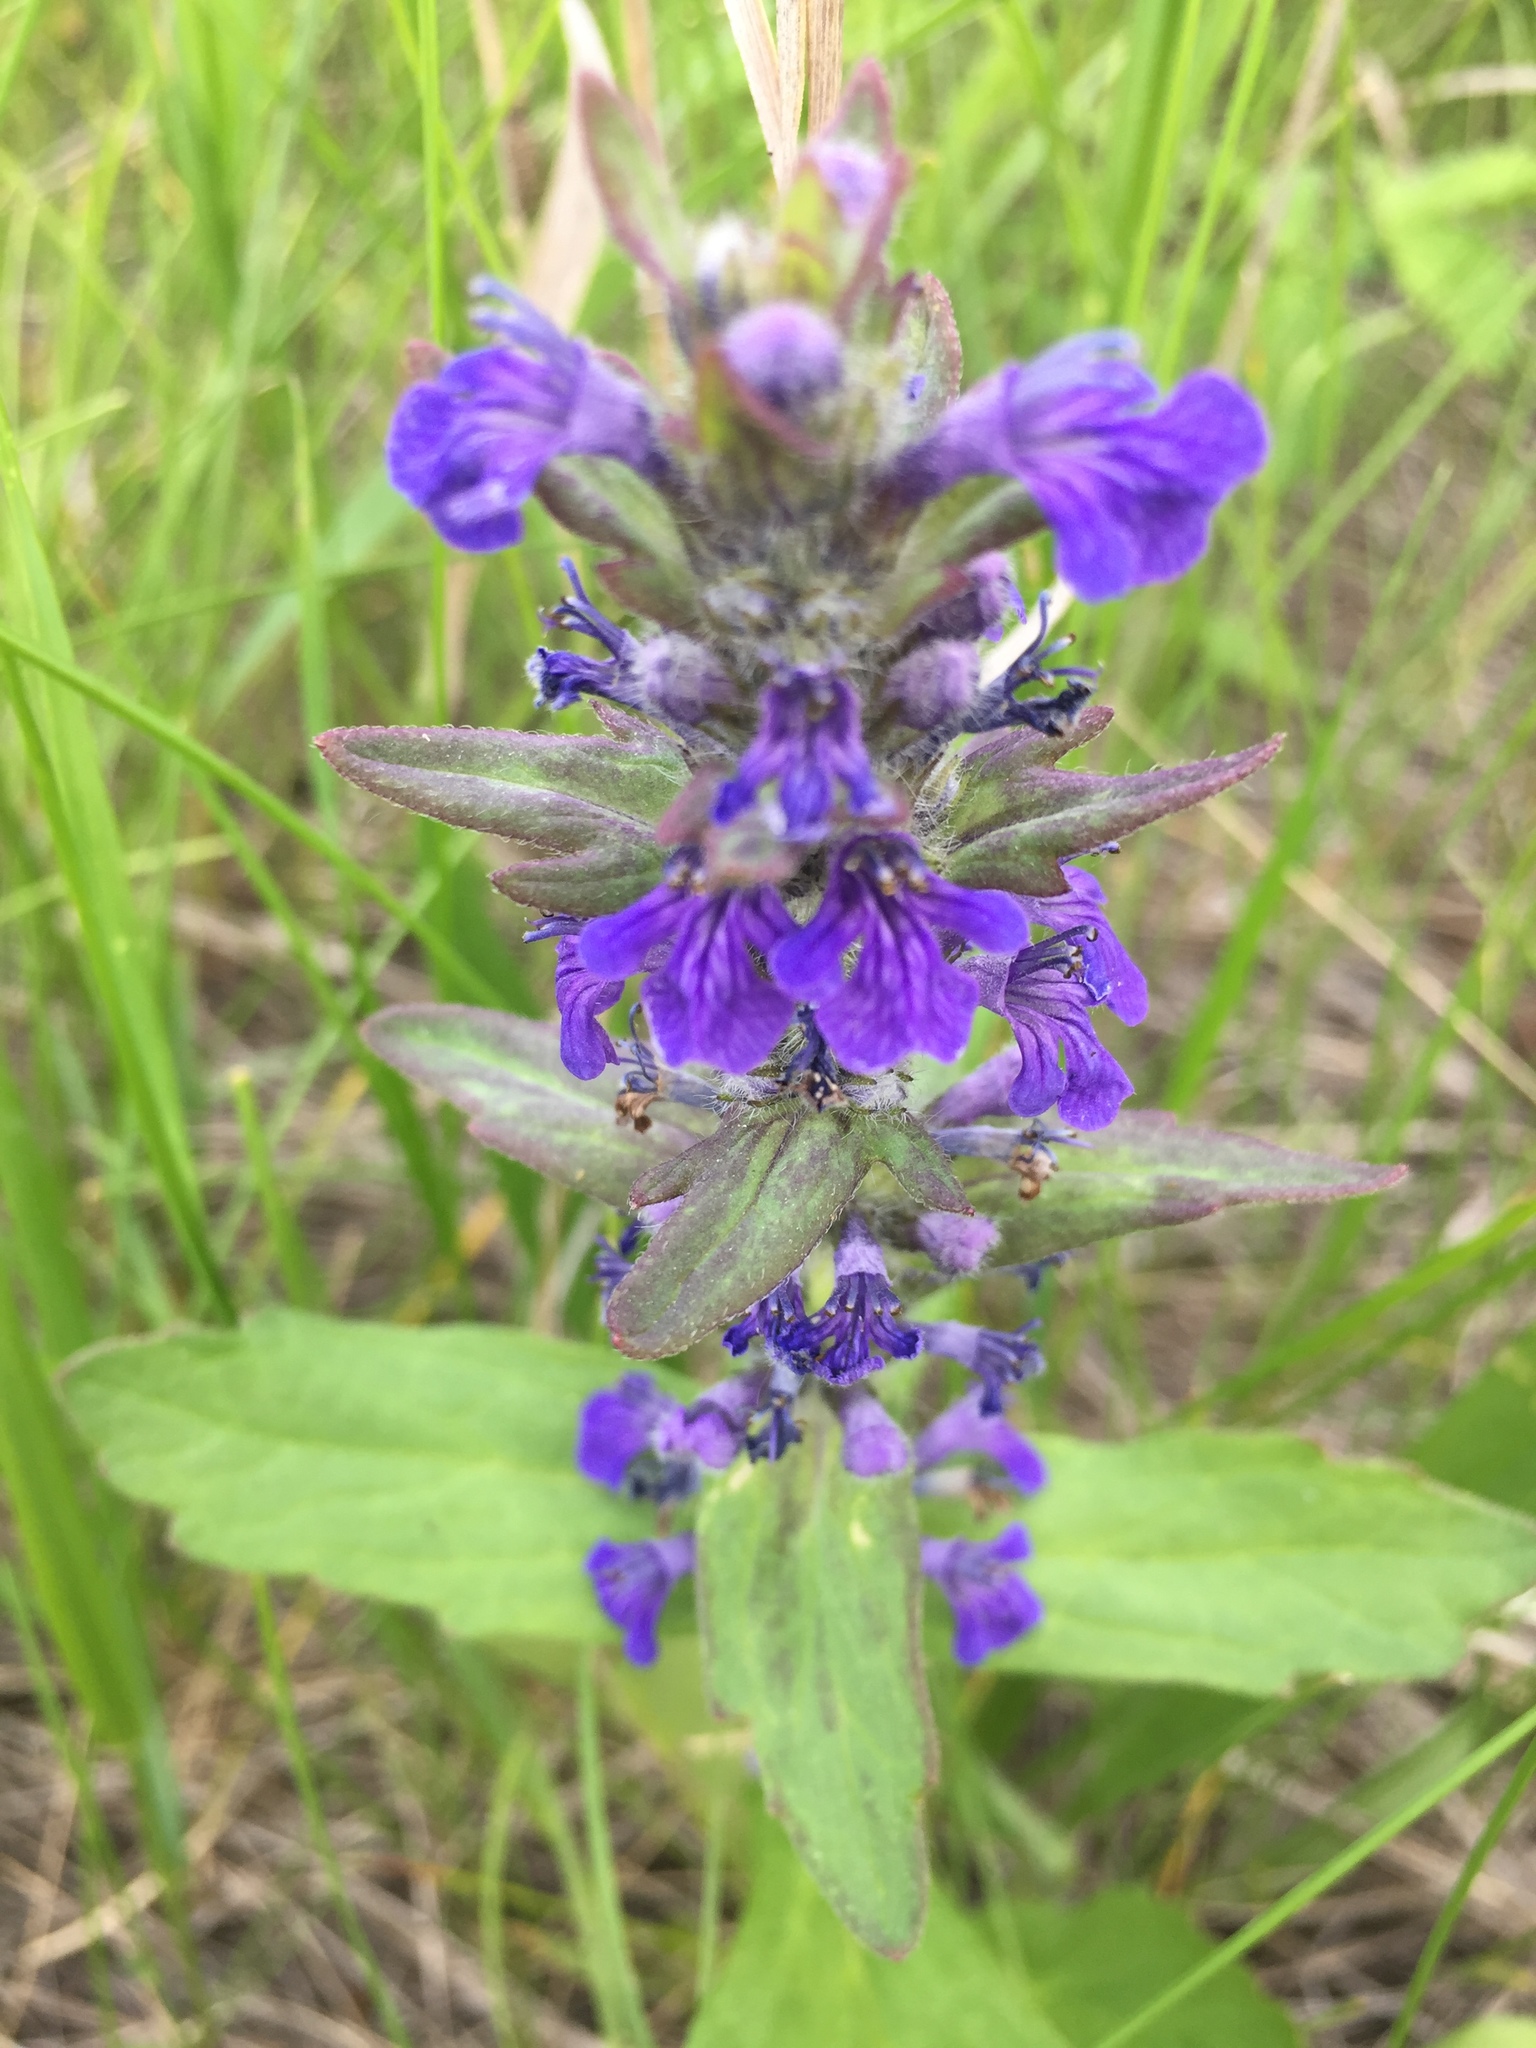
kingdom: Plantae
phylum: Tracheophyta
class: Magnoliopsida
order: Lamiales
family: Lamiaceae
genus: Ajuga
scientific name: Ajuga genevensis
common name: Blue bugle
